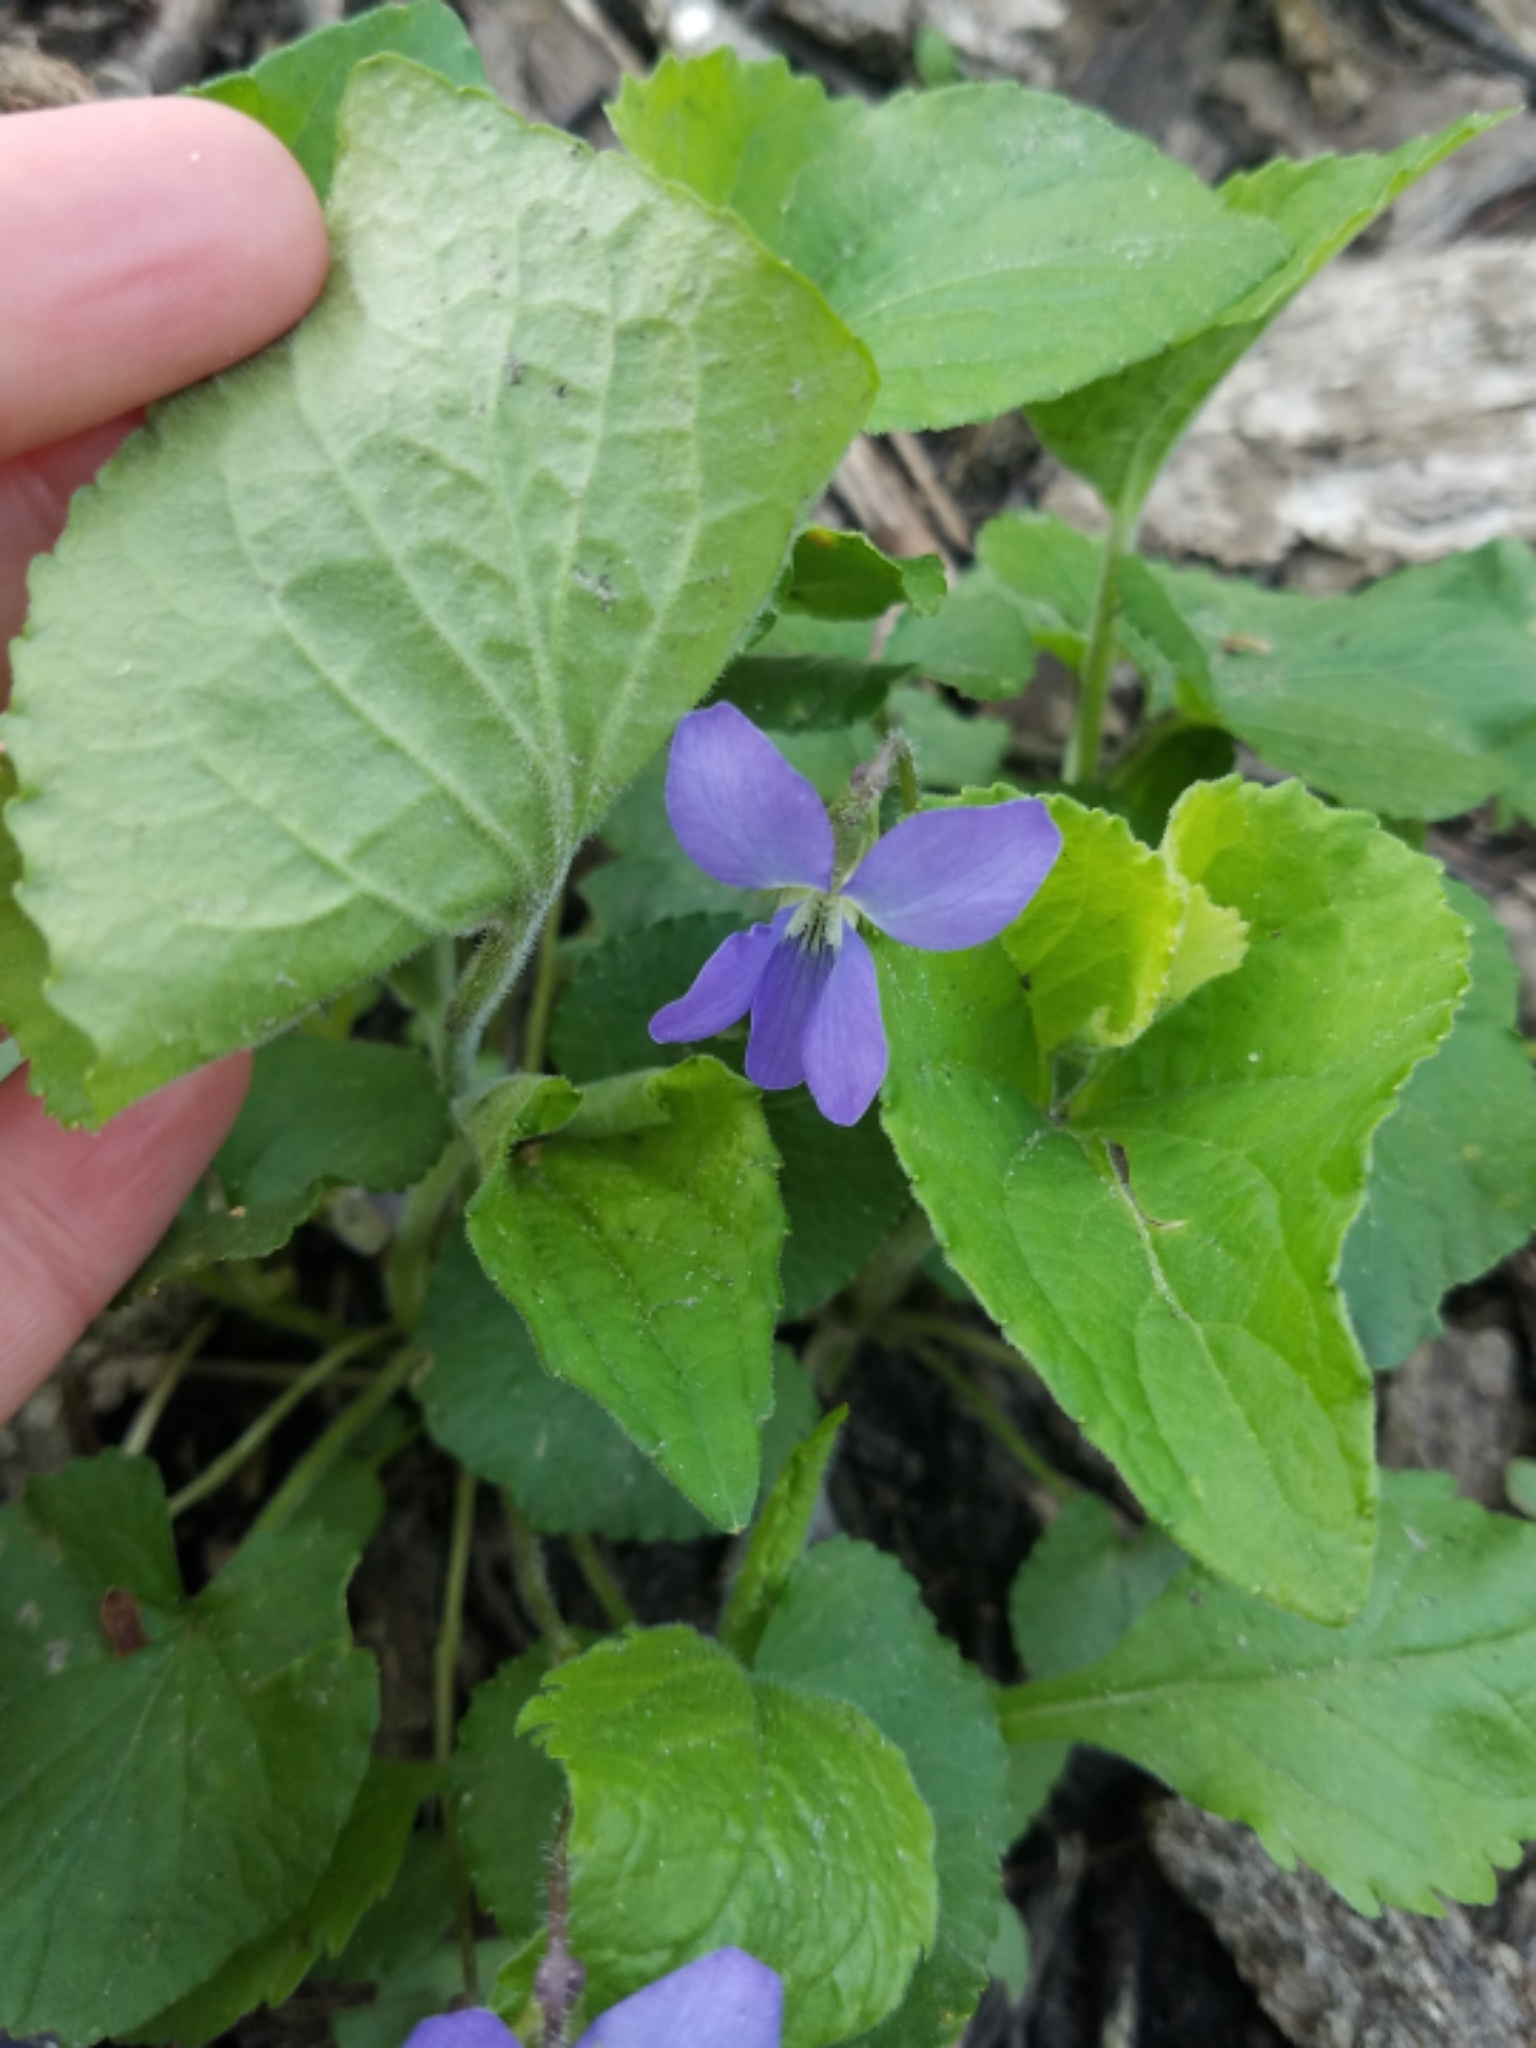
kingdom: Plantae
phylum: Tracheophyta
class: Magnoliopsida
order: Malpighiales
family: Violaceae
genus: Viola
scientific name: Viola sororia
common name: Dooryard violet
